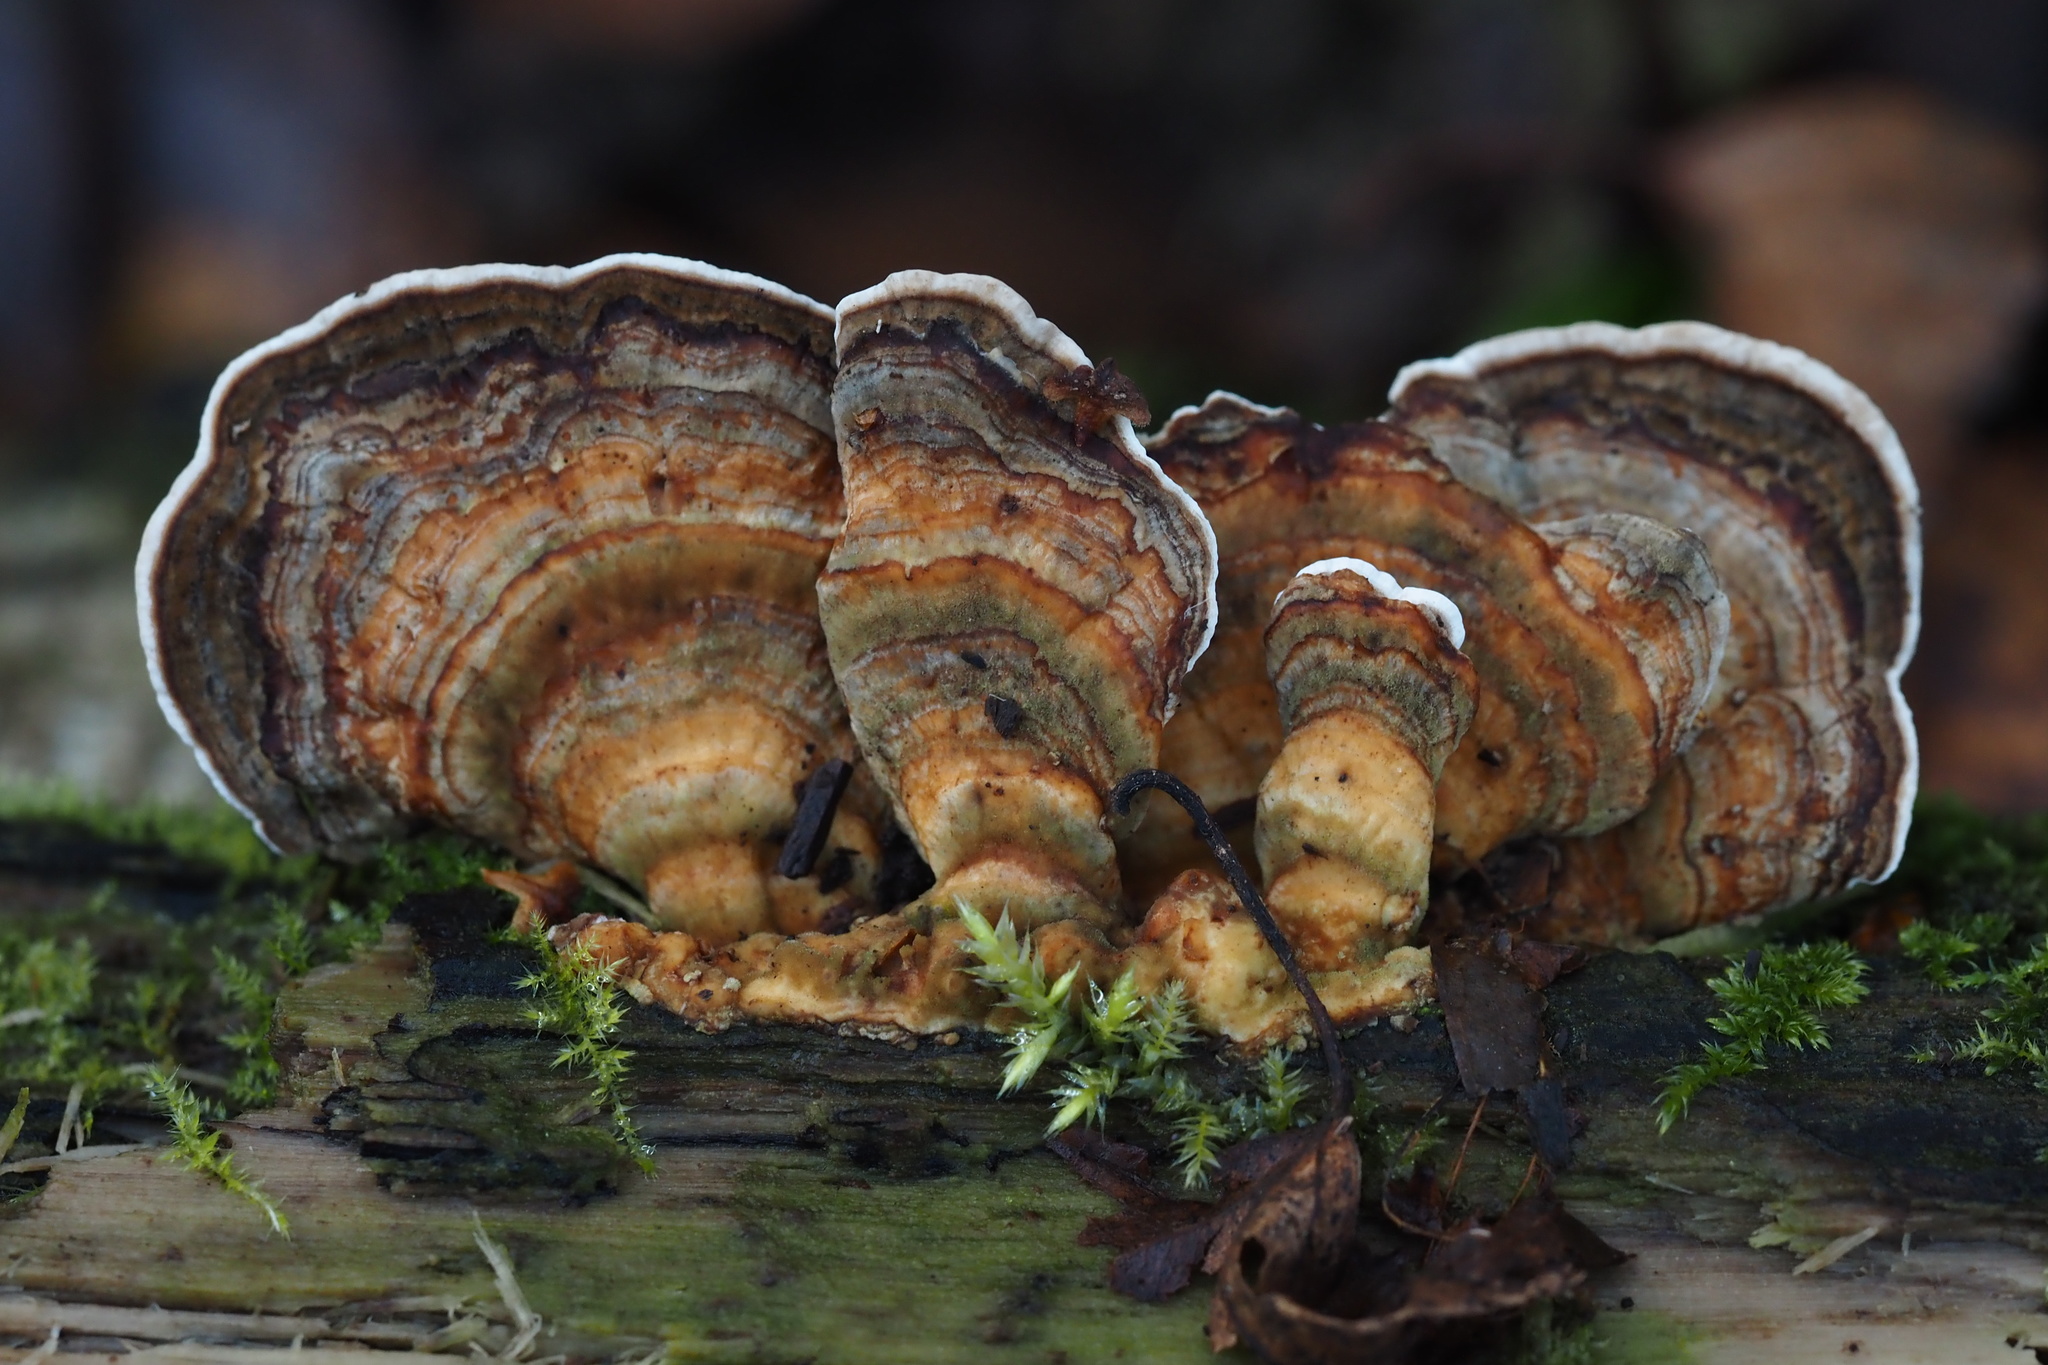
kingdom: Fungi
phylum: Basidiomycota
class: Agaricomycetes
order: Polyporales
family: Polyporaceae
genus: Trametes
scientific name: Trametes versicolor
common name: Turkeytail
